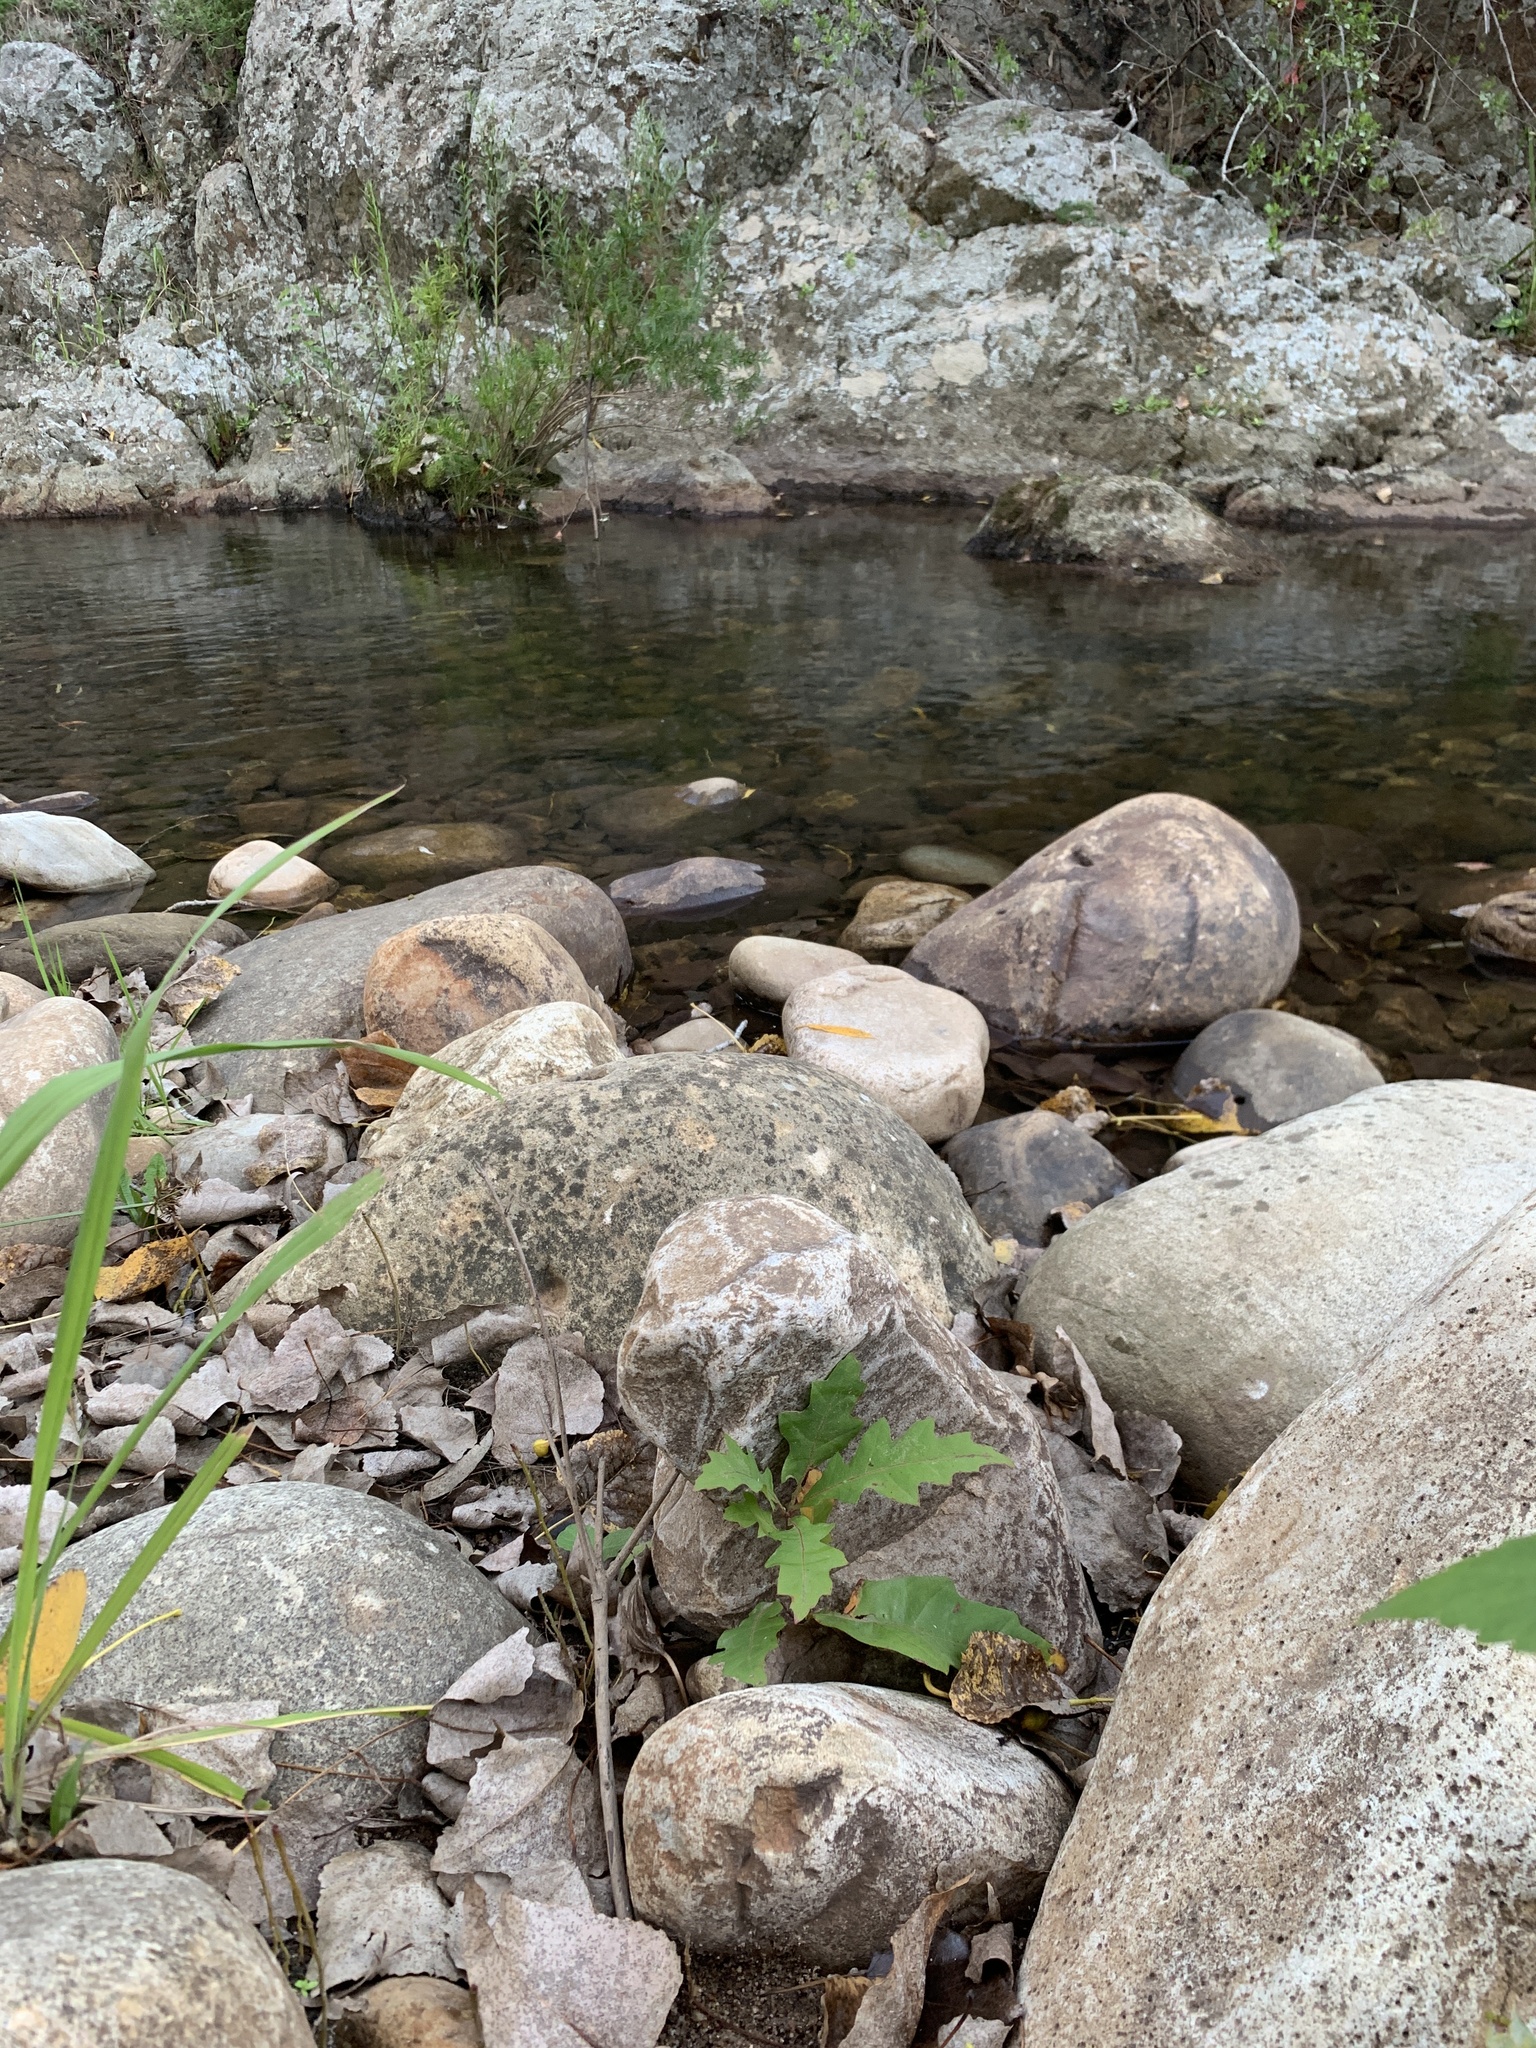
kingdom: Plantae
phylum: Tracheophyta
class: Magnoliopsida
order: Fagales
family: Fagaceae
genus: Quercus
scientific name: Quercus palustris
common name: Pin oak
